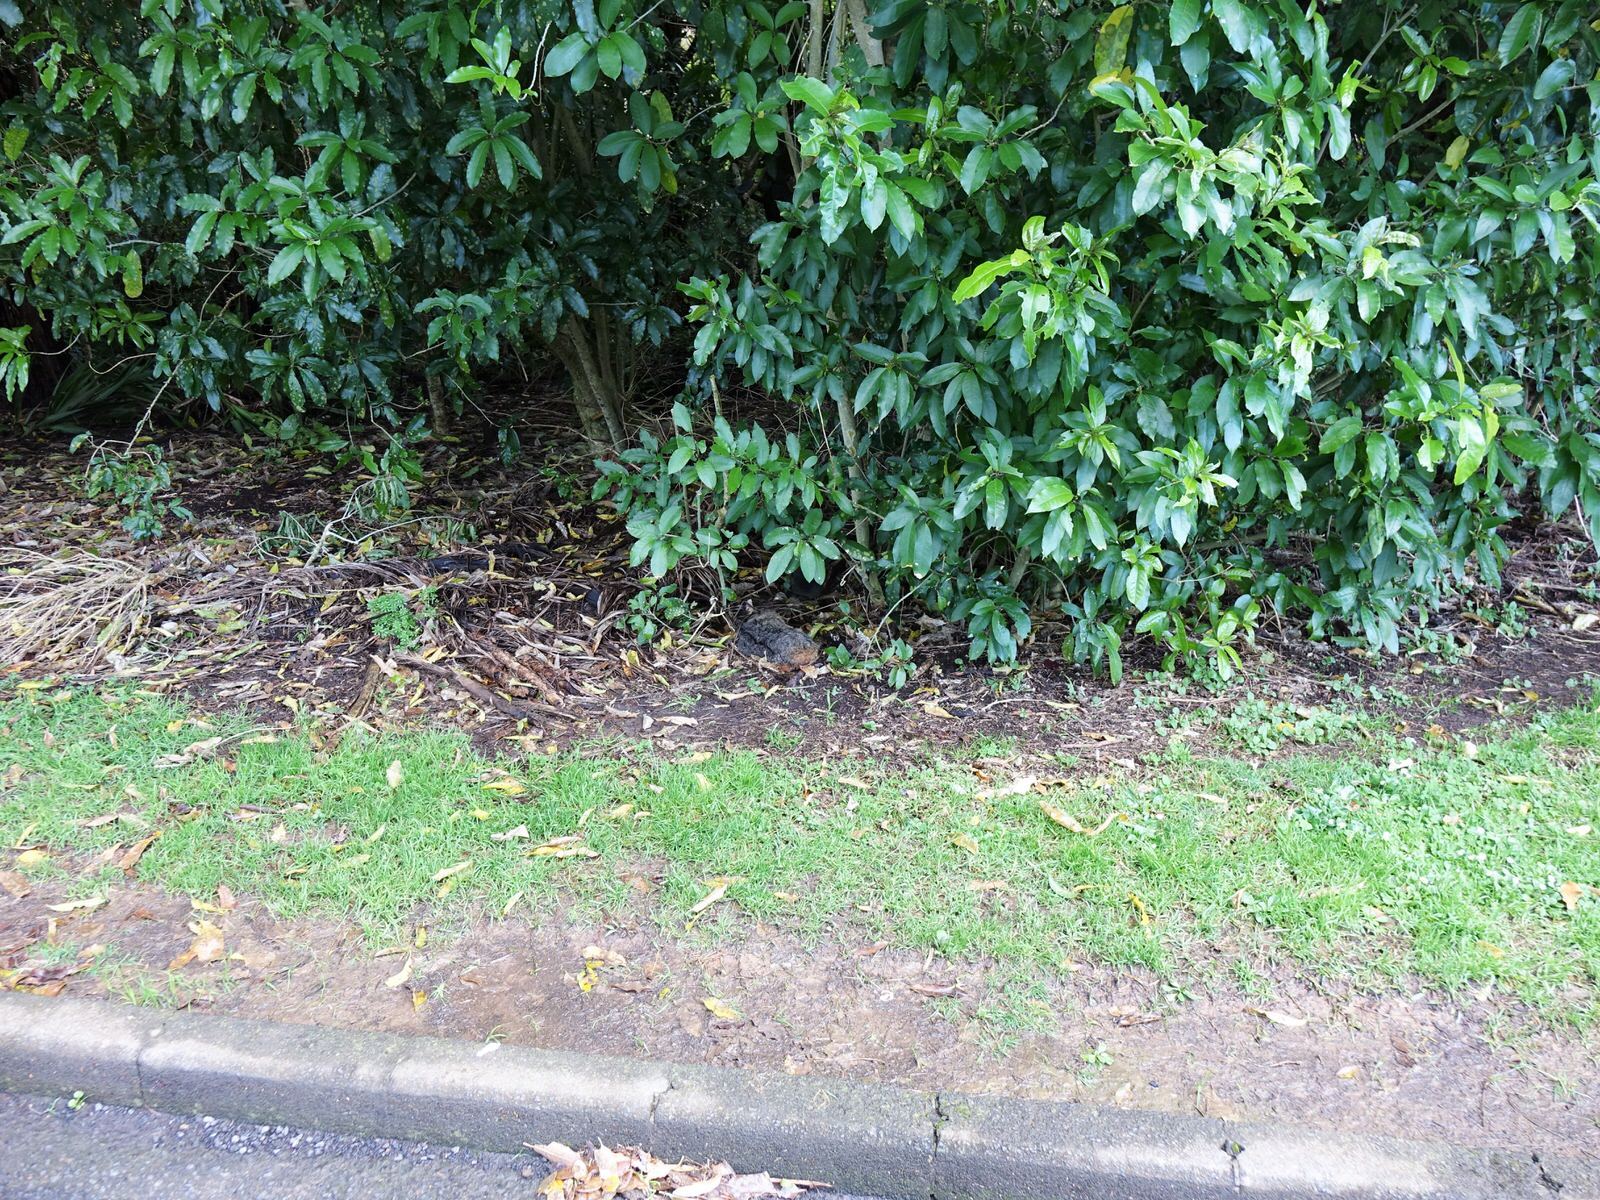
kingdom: Animalia
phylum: Chordata
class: Mammalia
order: Diprotodontia
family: Phalangeridae
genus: Trichosurus
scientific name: Trichosurus vulpecula
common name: Common brushtail
